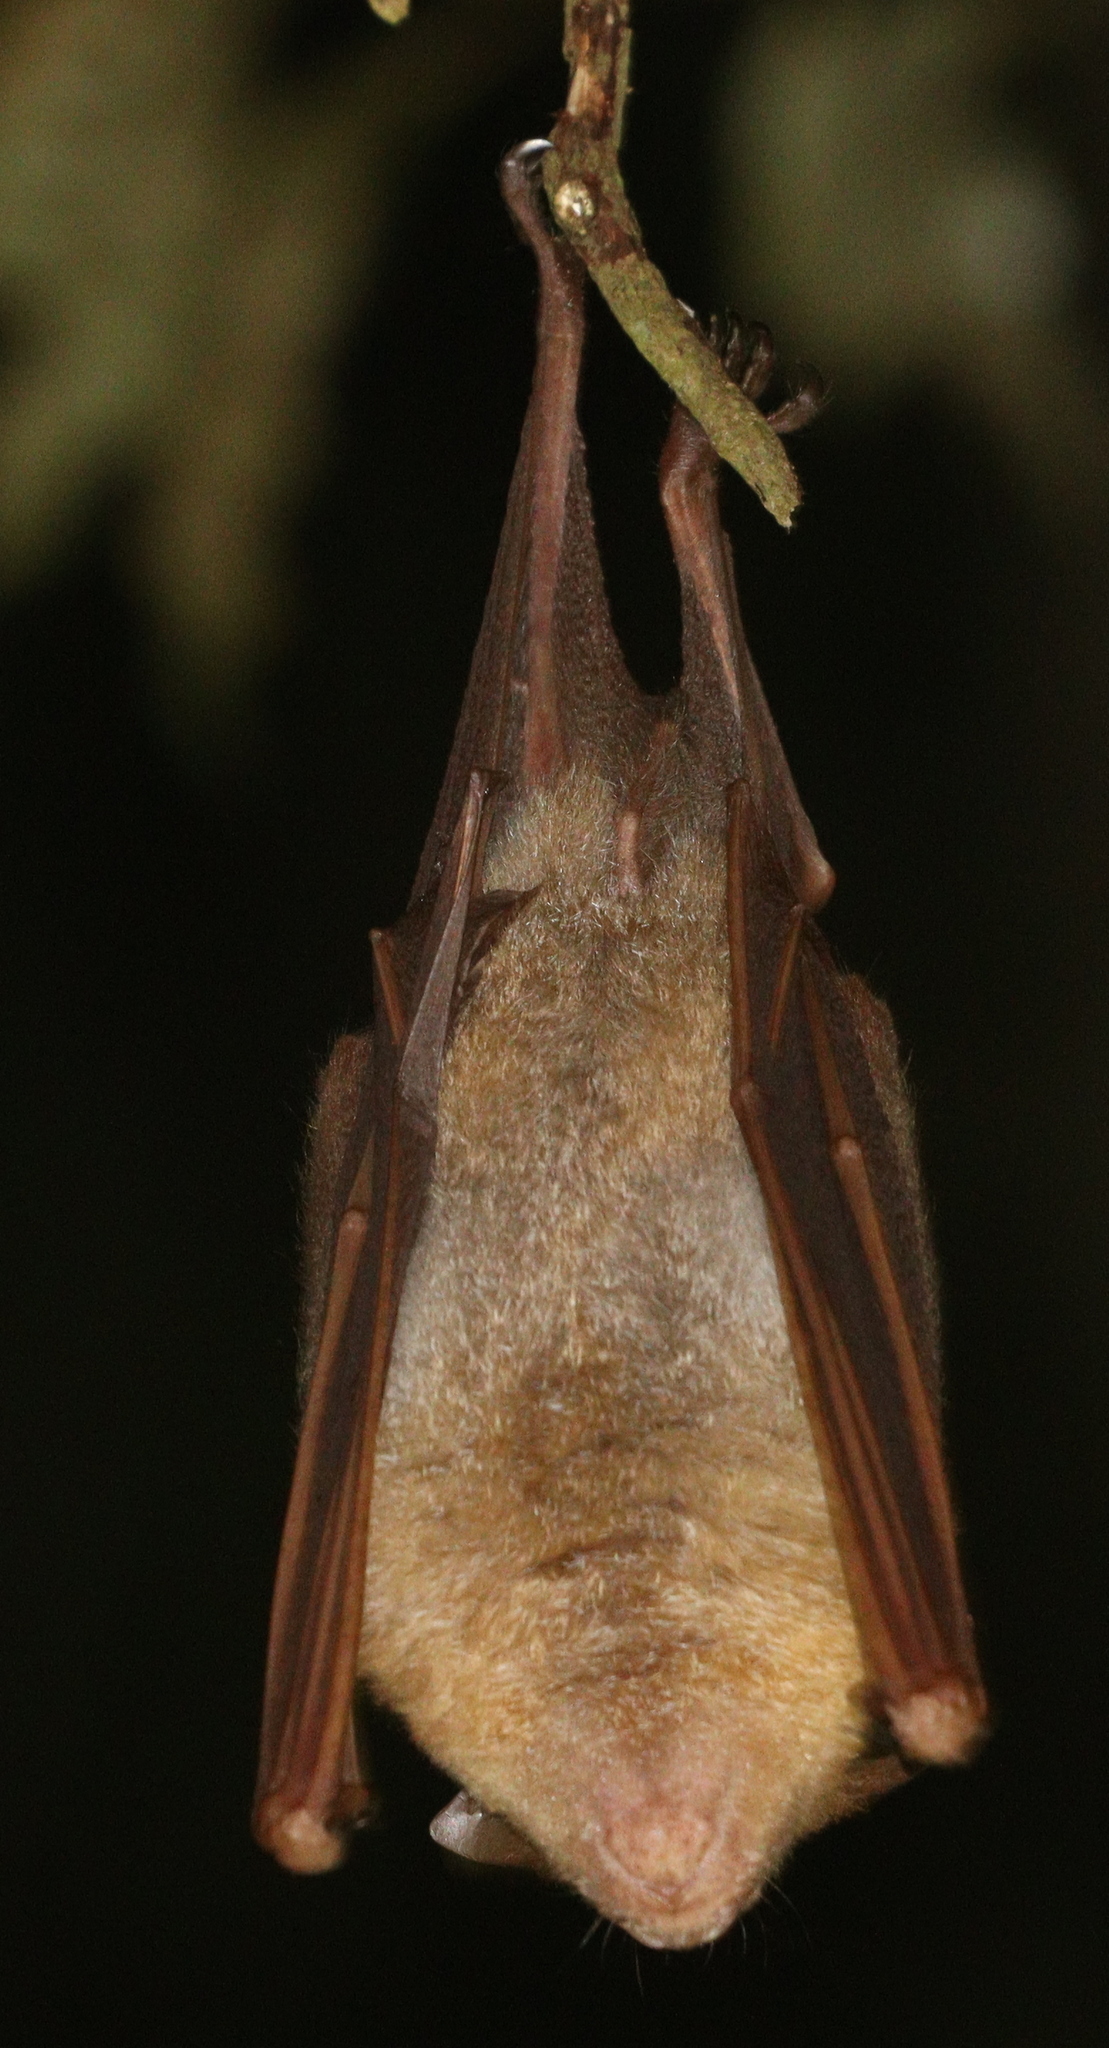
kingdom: Animalia
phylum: Chordata
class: Mammalia
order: Chiroptera
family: Hipposideridae
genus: Hipposideros
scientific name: Hipposideros diadema
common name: Diadem leaf-nosed bat
